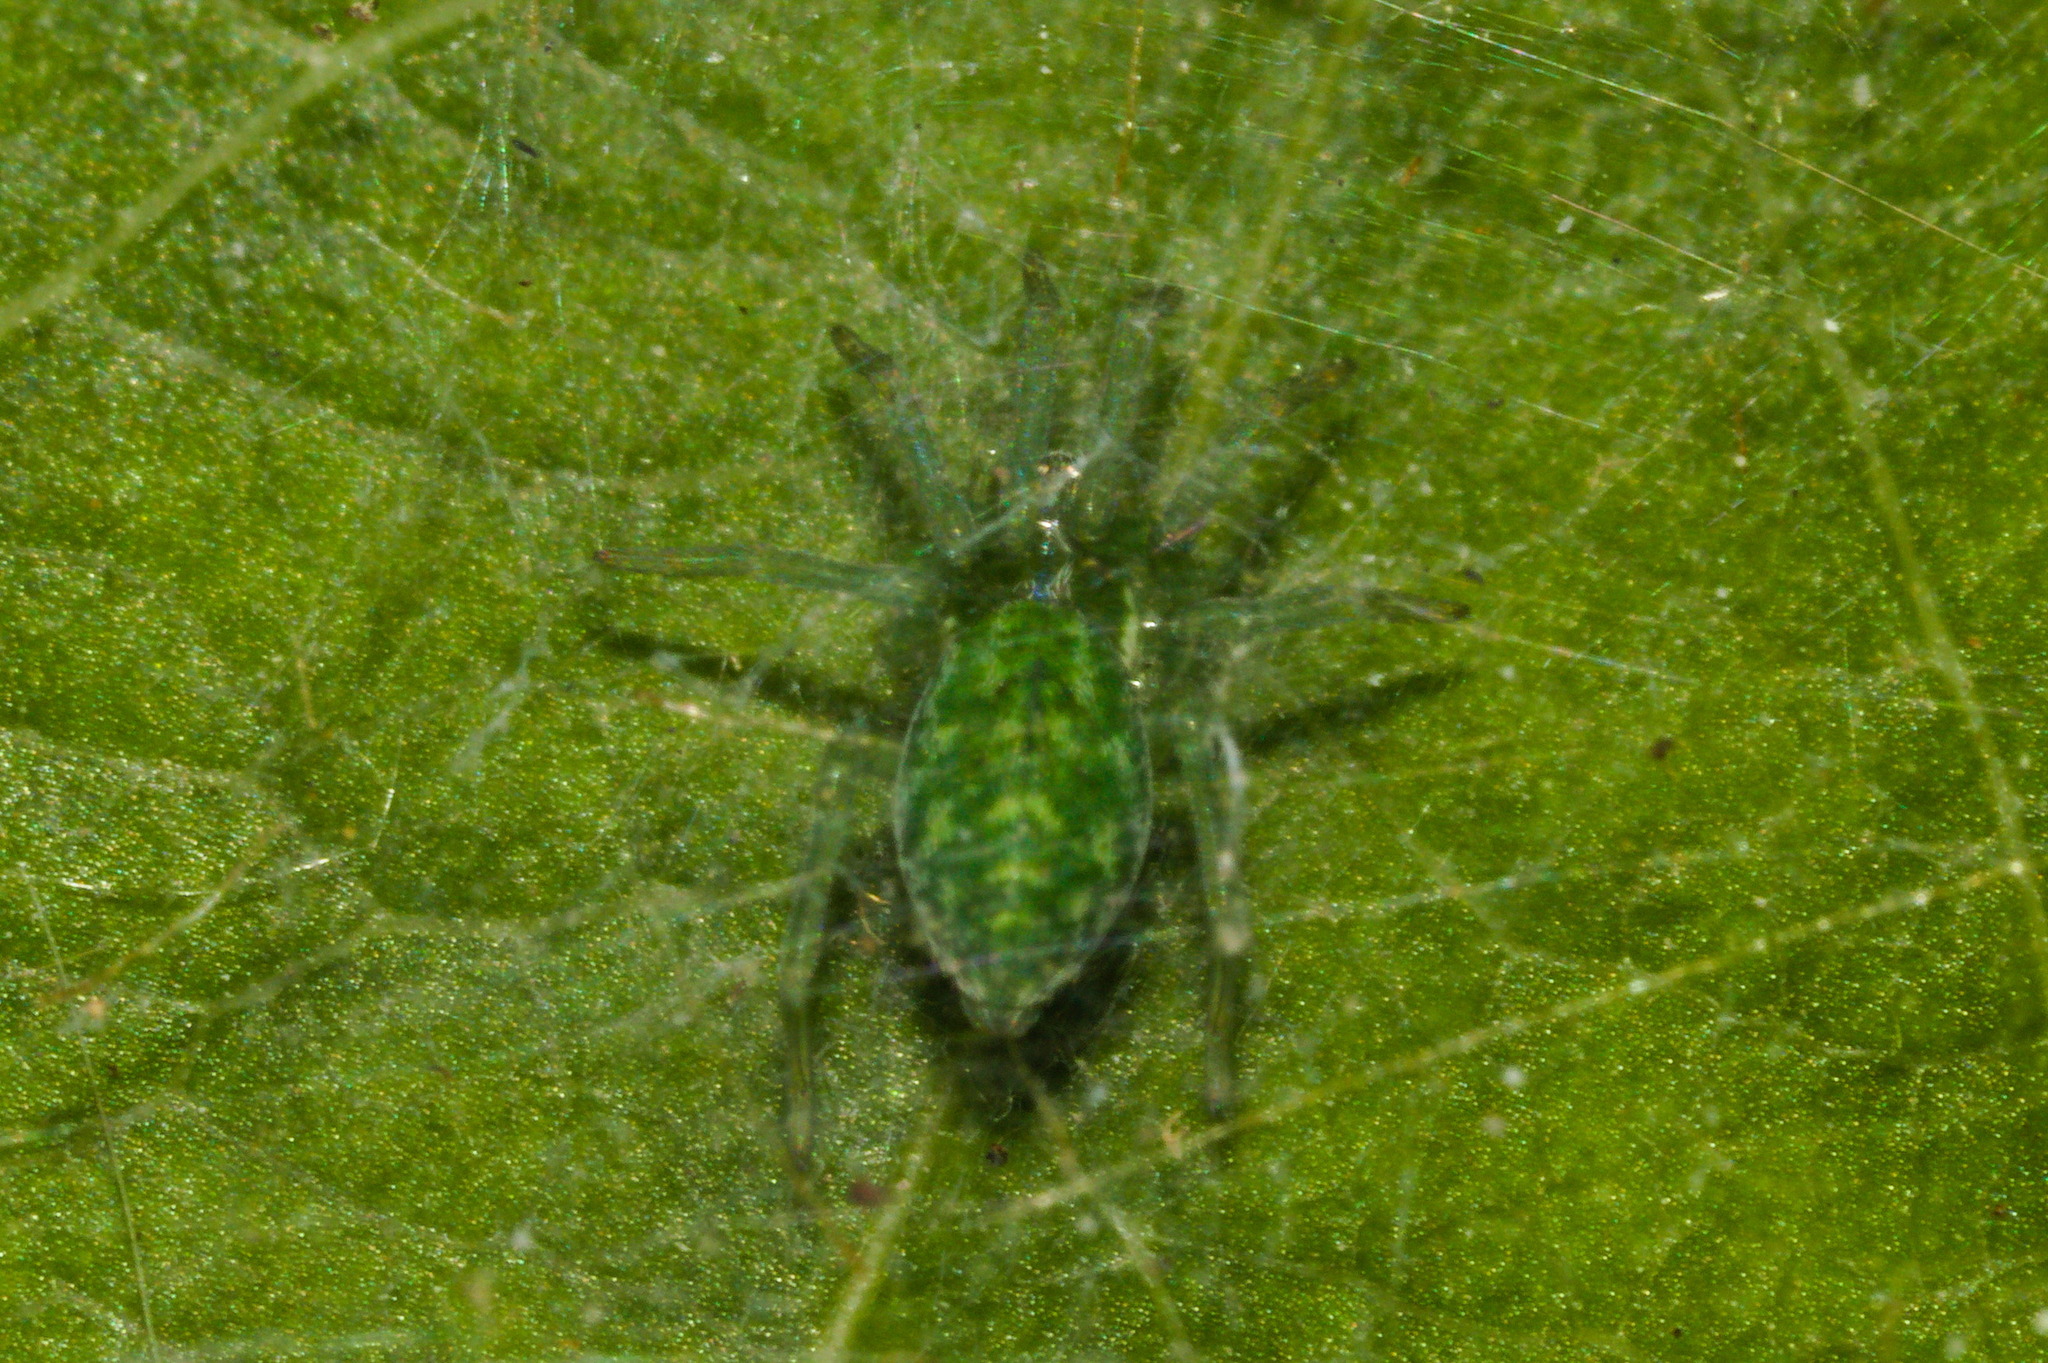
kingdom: Animalia
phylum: Arthropoda
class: Arachnida
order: Araneae
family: Dictynidae
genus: Nigma
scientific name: Nigma walckenaeri
